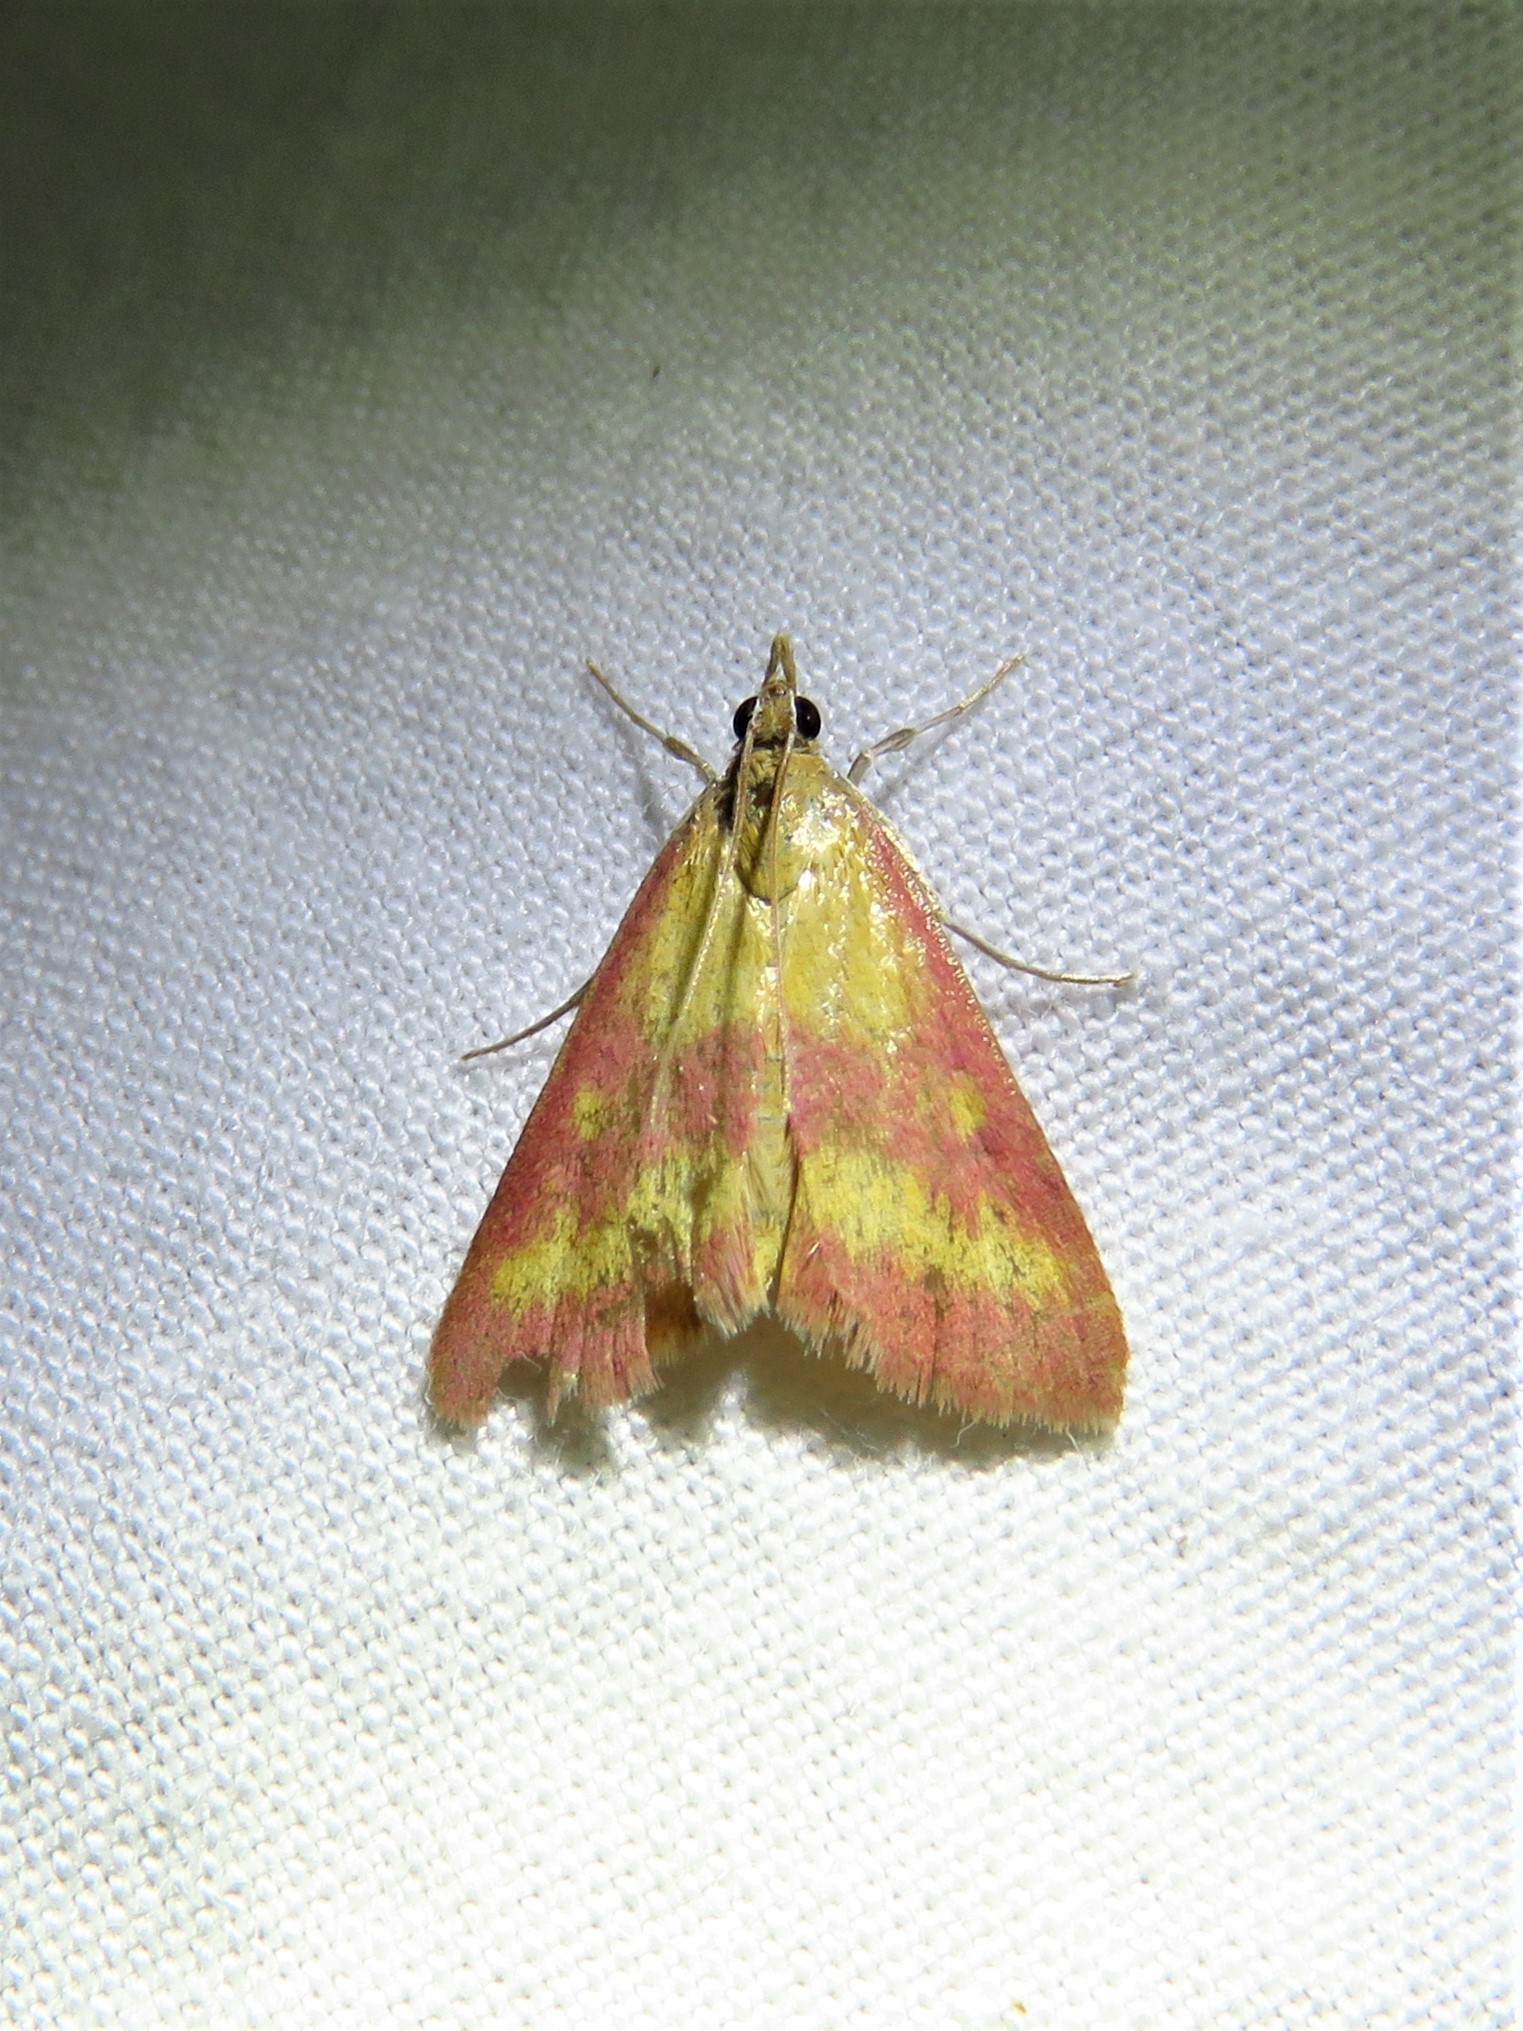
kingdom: Animalia
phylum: Arthropoda
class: Insecta
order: Lepidoptera
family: Crambidae
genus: Pyrausta
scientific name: Pyrausta laticlavia
